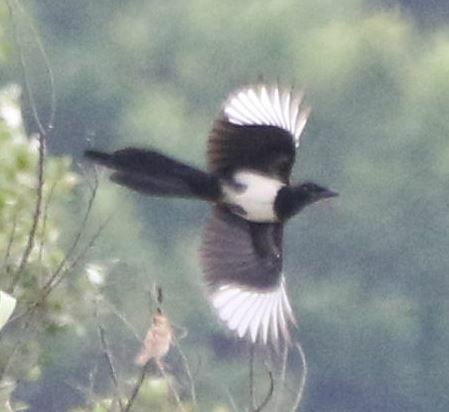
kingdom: Animalia
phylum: Chordata
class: Aves
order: Passeriformes
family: Corvidae
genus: Pica
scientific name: Pica pica
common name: Eurasian magpie
